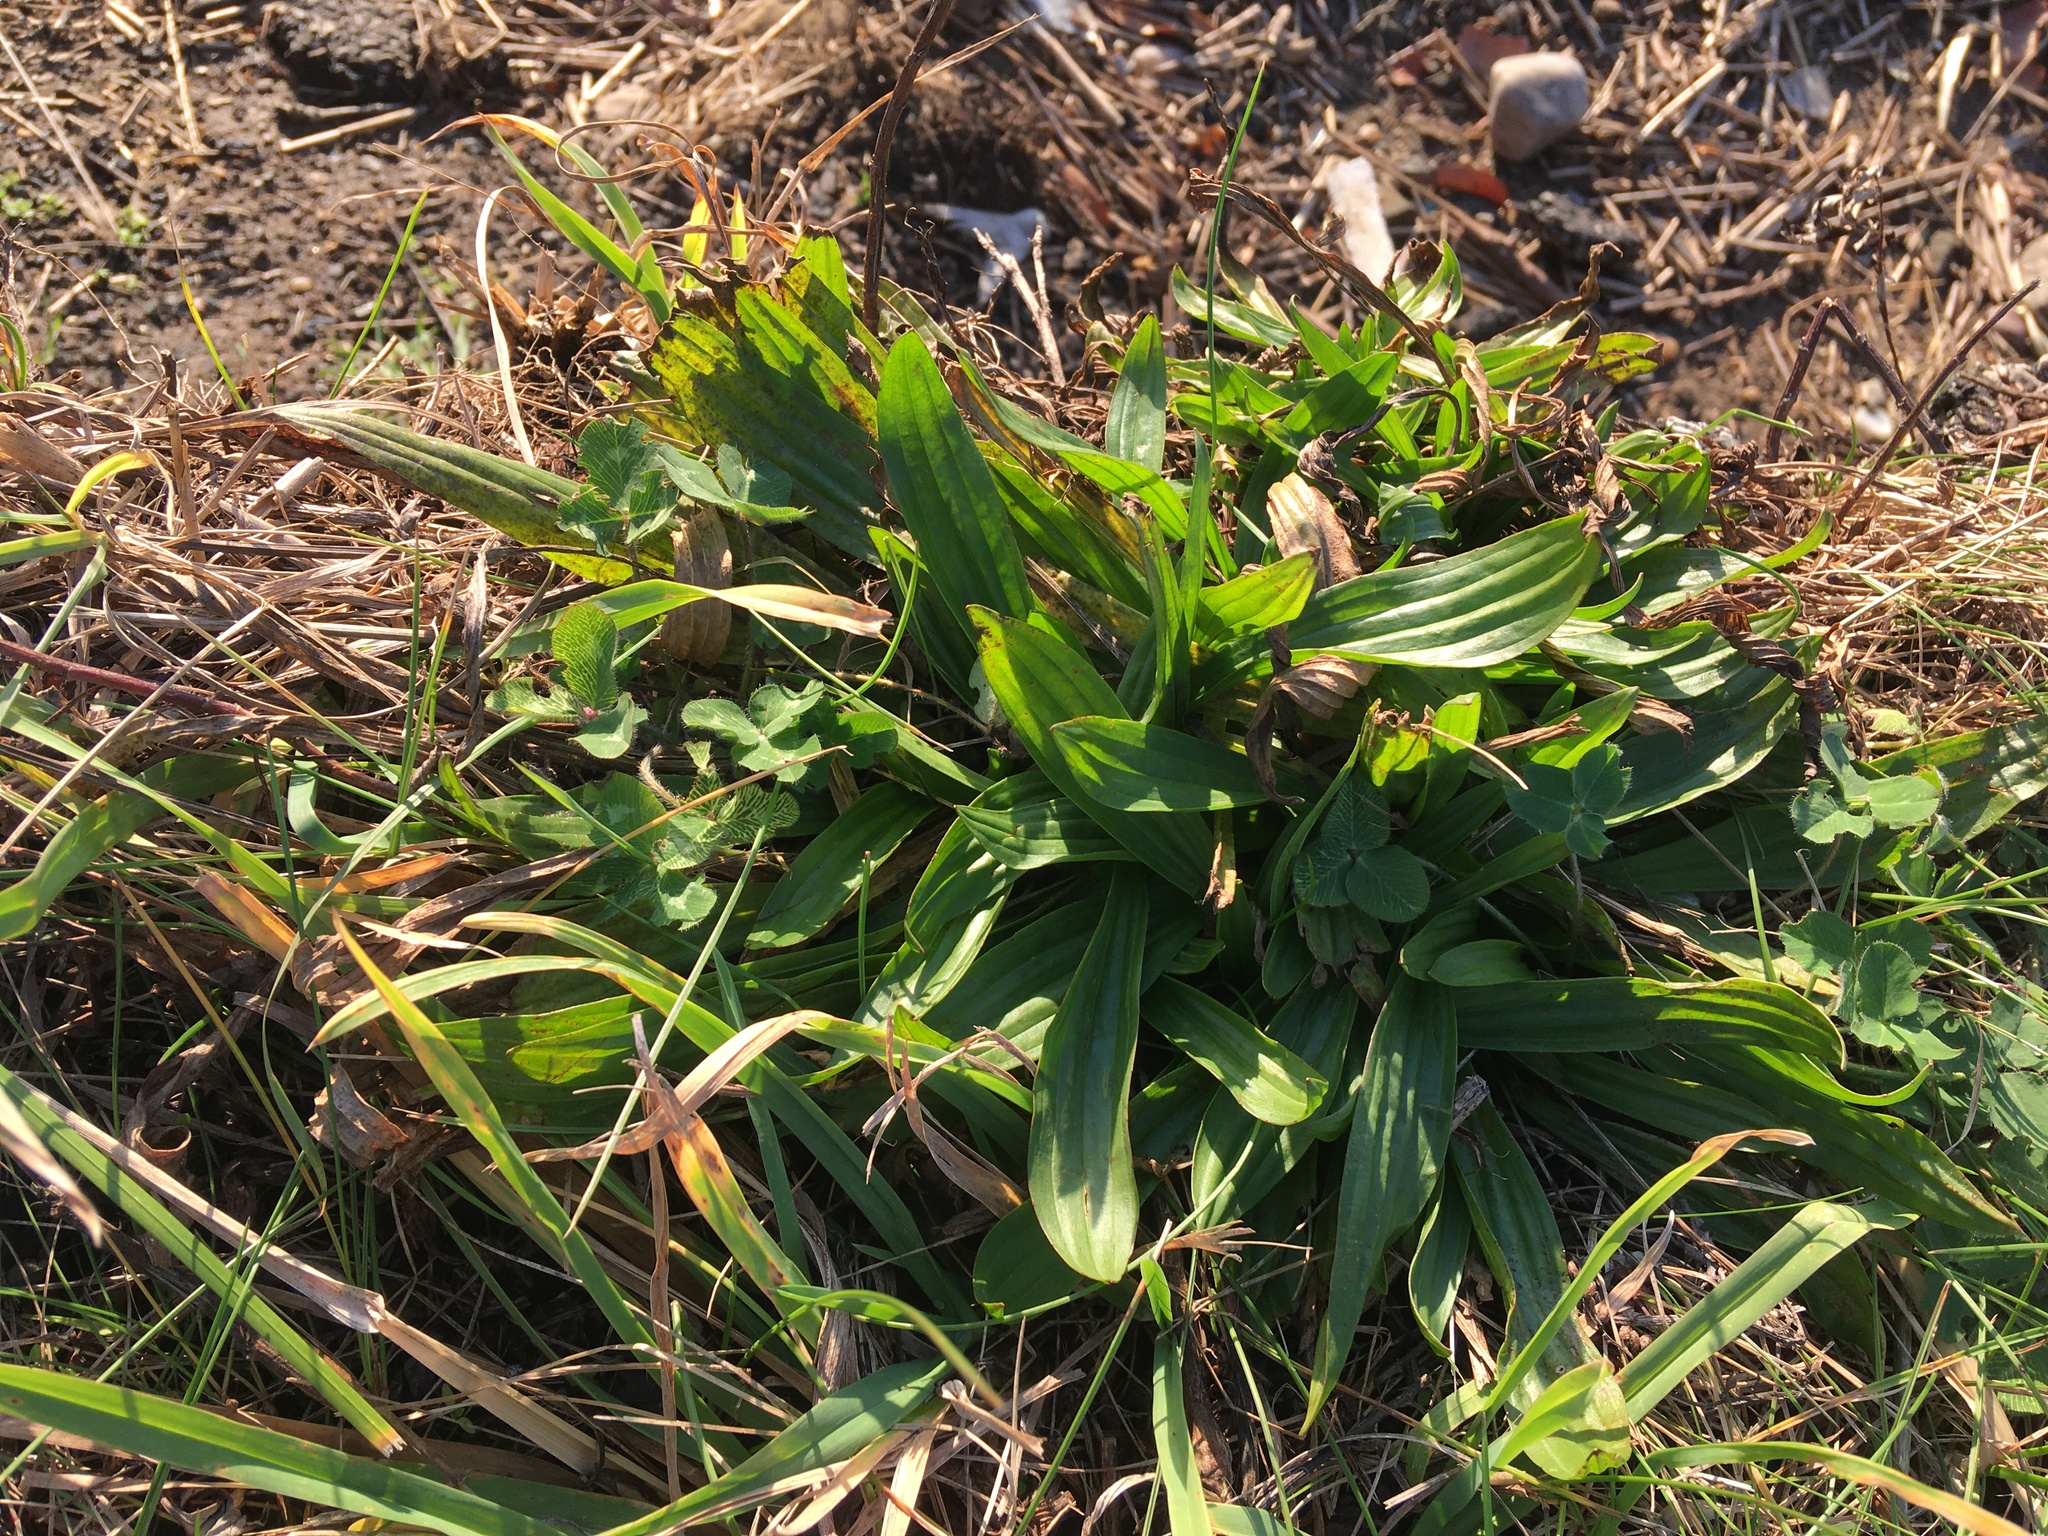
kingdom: Plantae
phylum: Tracheophyta
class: Magnoliopsida
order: Lamiales
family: Plantaginaceae
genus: Plantago
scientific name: Plantago lanceolata
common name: Ribwort plantain
